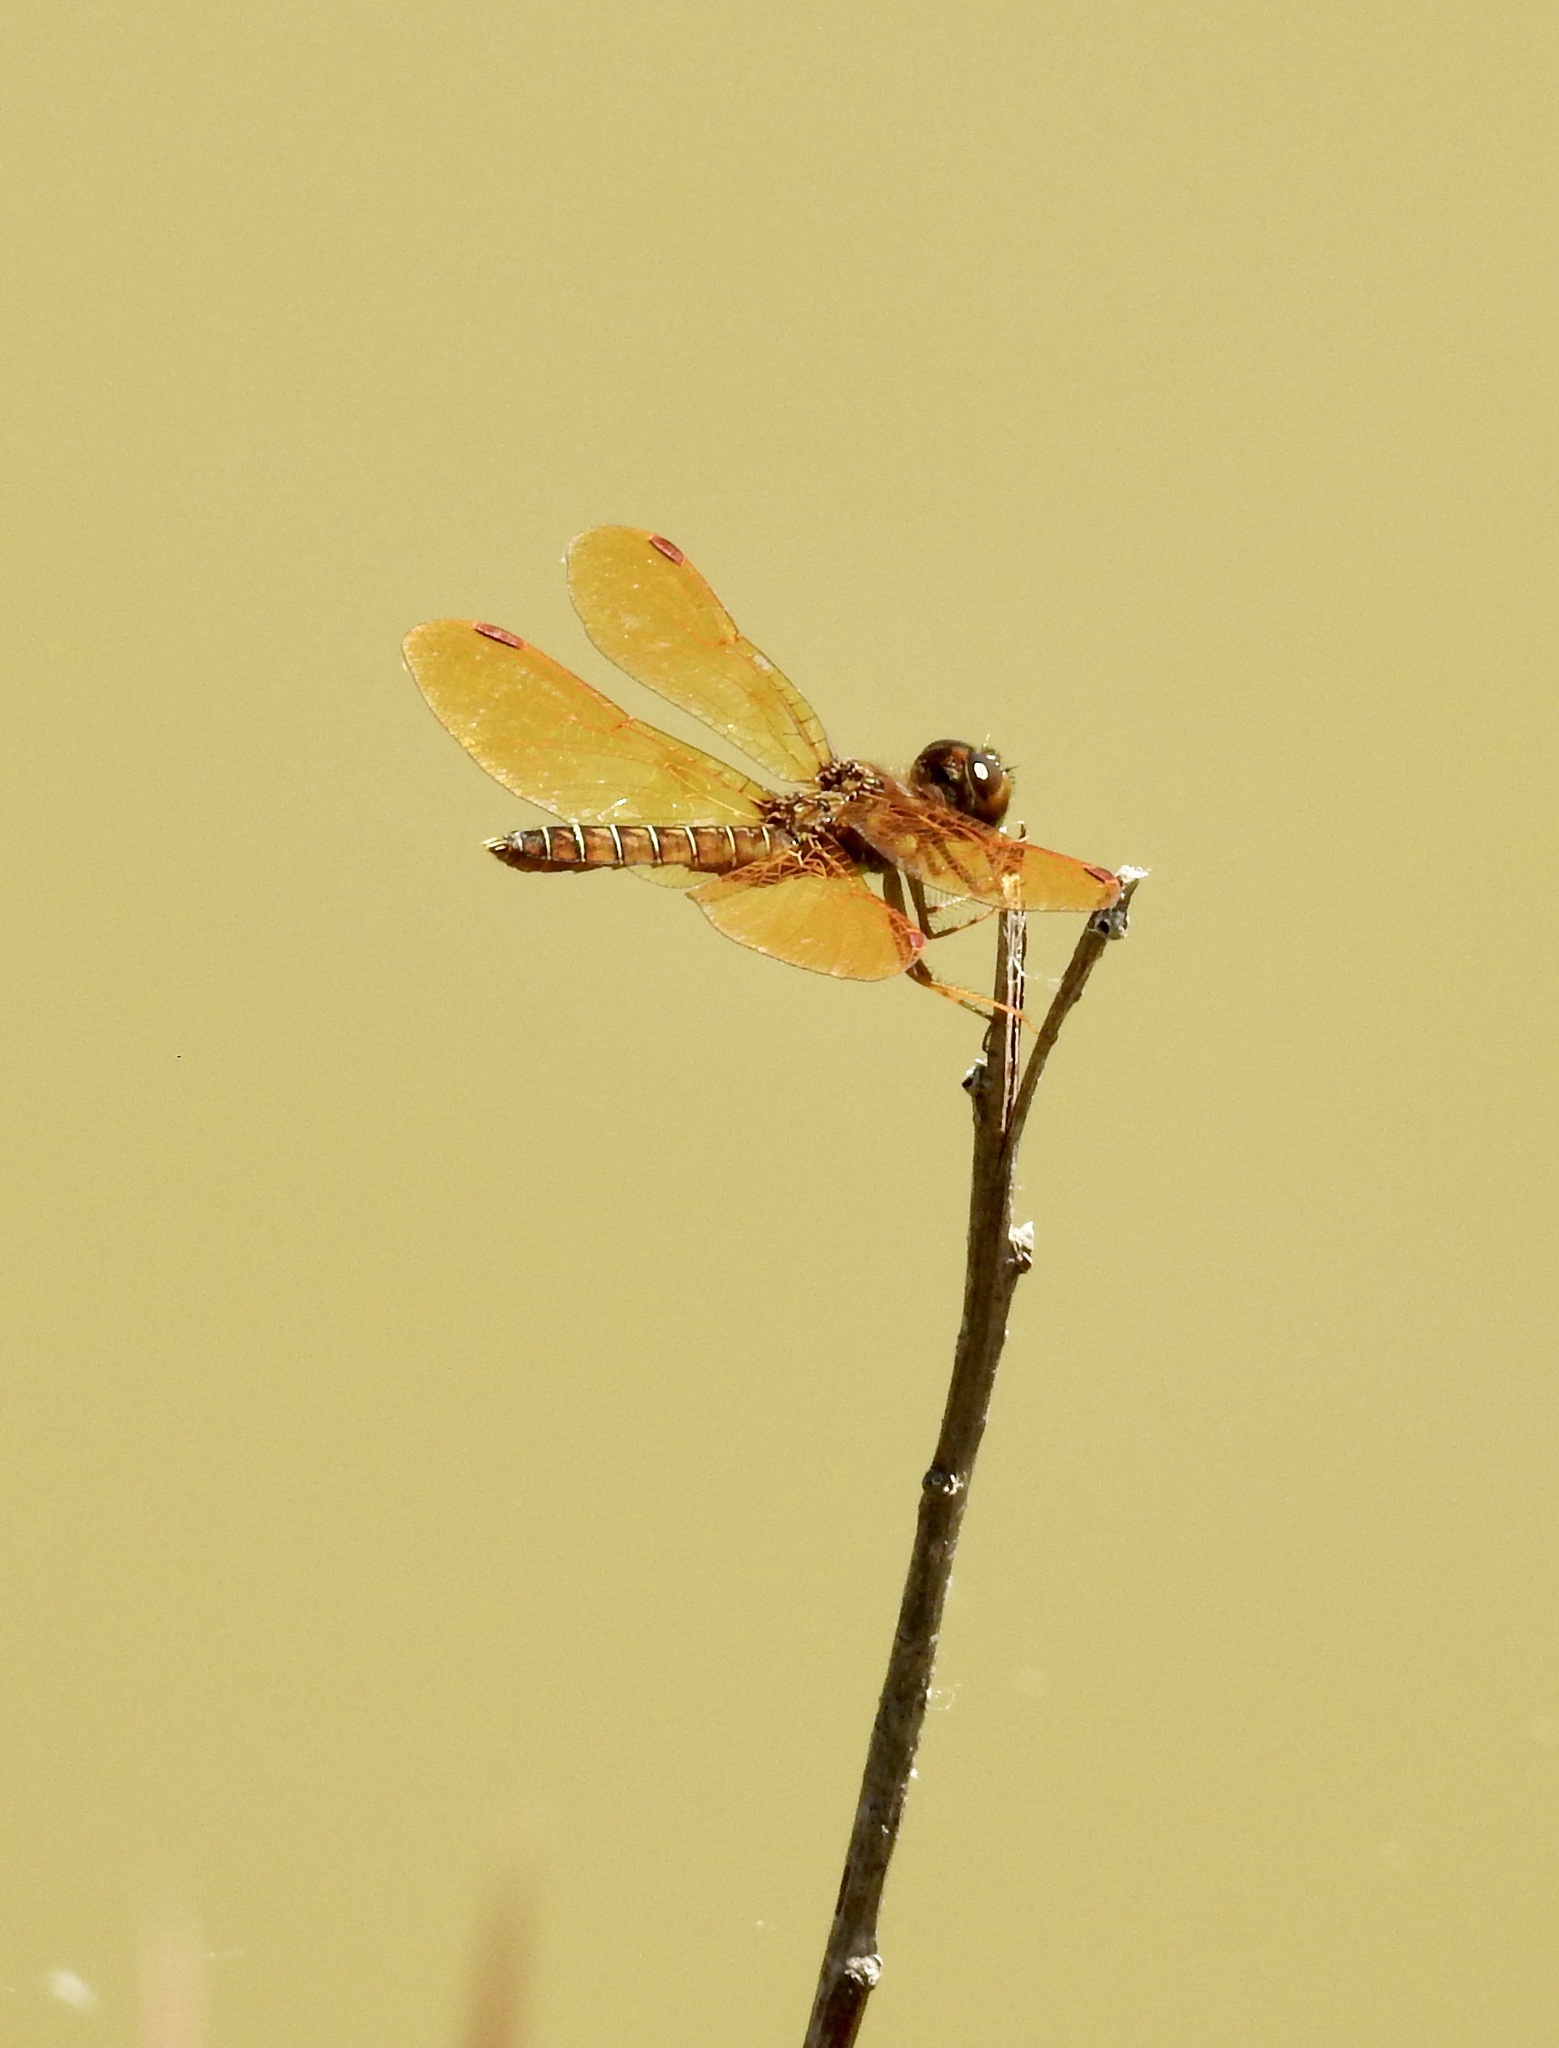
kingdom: Animalia
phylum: Arthropoda
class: Insecta
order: Odonata
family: Libellulidae
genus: Perithemis
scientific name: Perithemis tenera
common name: Eastern amberwing
